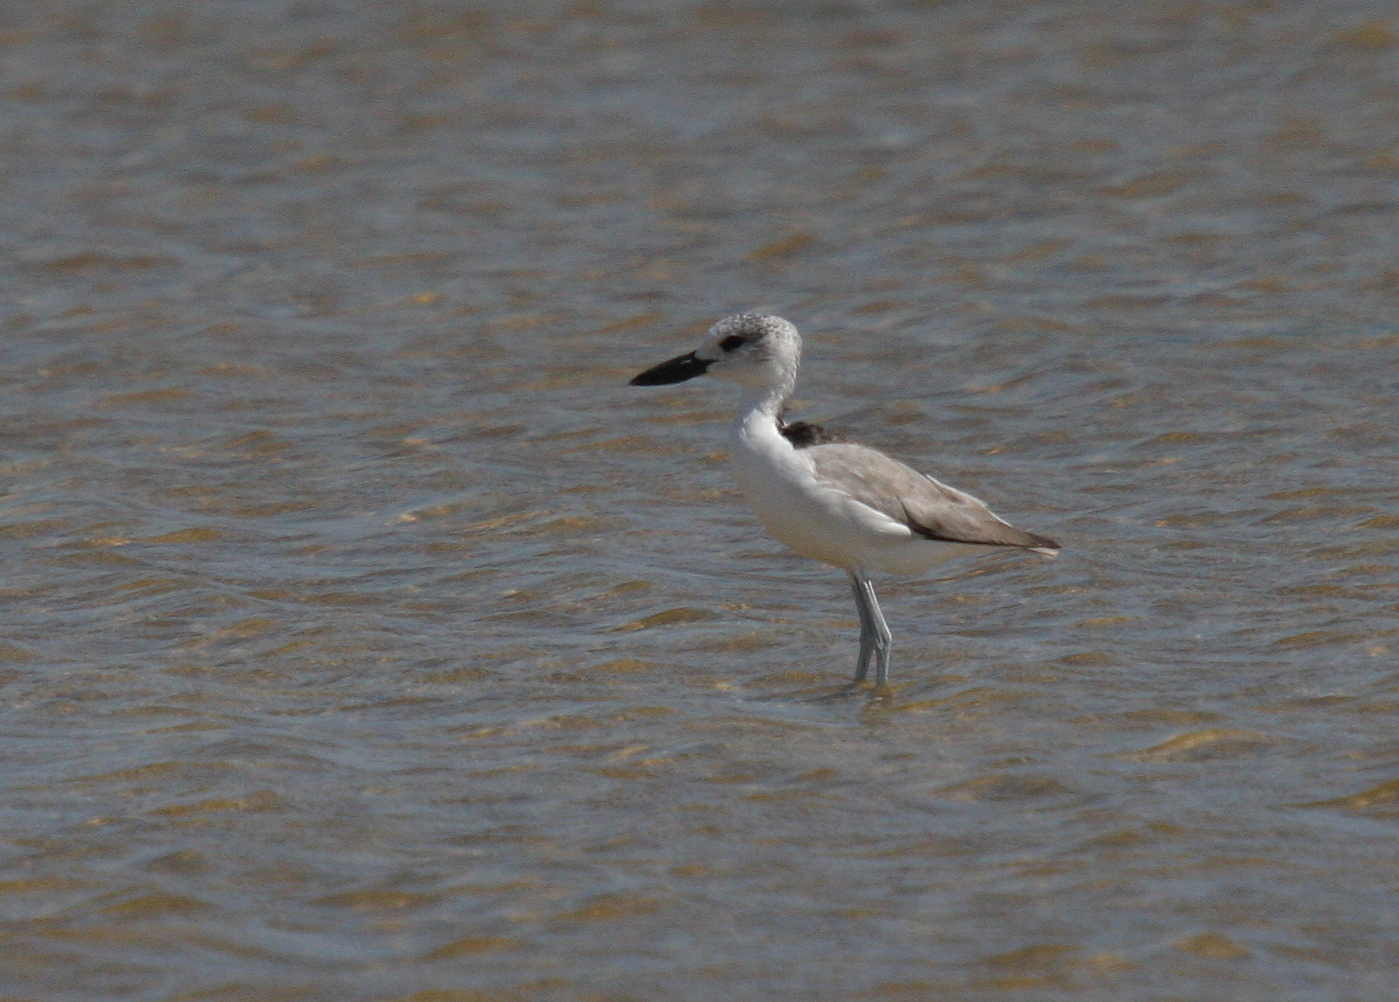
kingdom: Animalia
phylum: Chordata
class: Aves
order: Charadriiformes
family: Dromadidae
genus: Dromas
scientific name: Dromas ardeola
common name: Crab-plover
